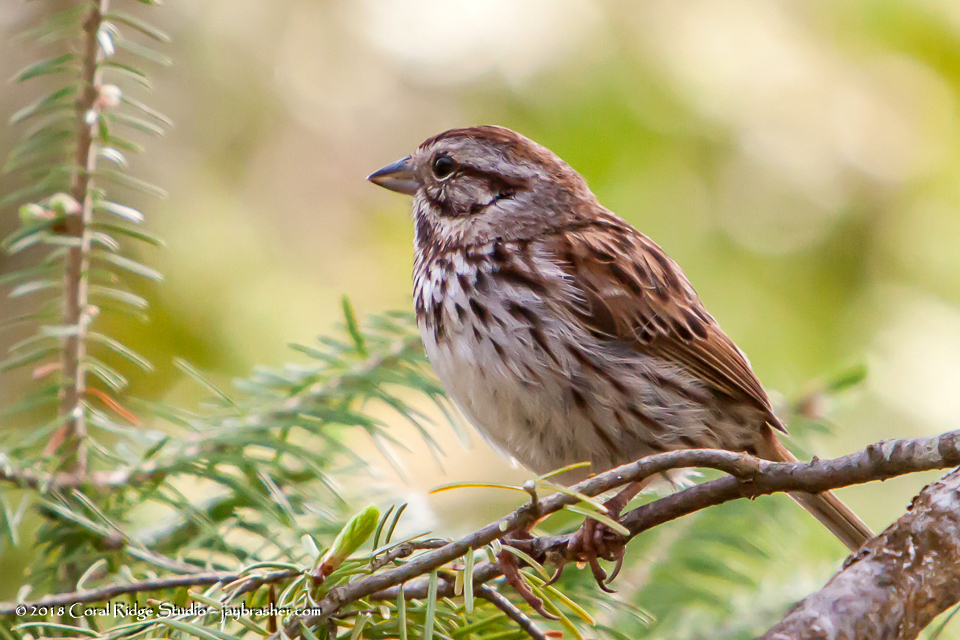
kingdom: Animalia
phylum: Chordata
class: Aves
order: Passeriformes
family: Passerellidae
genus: Melospiza
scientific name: Melospiza melodia
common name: Song sparrow
